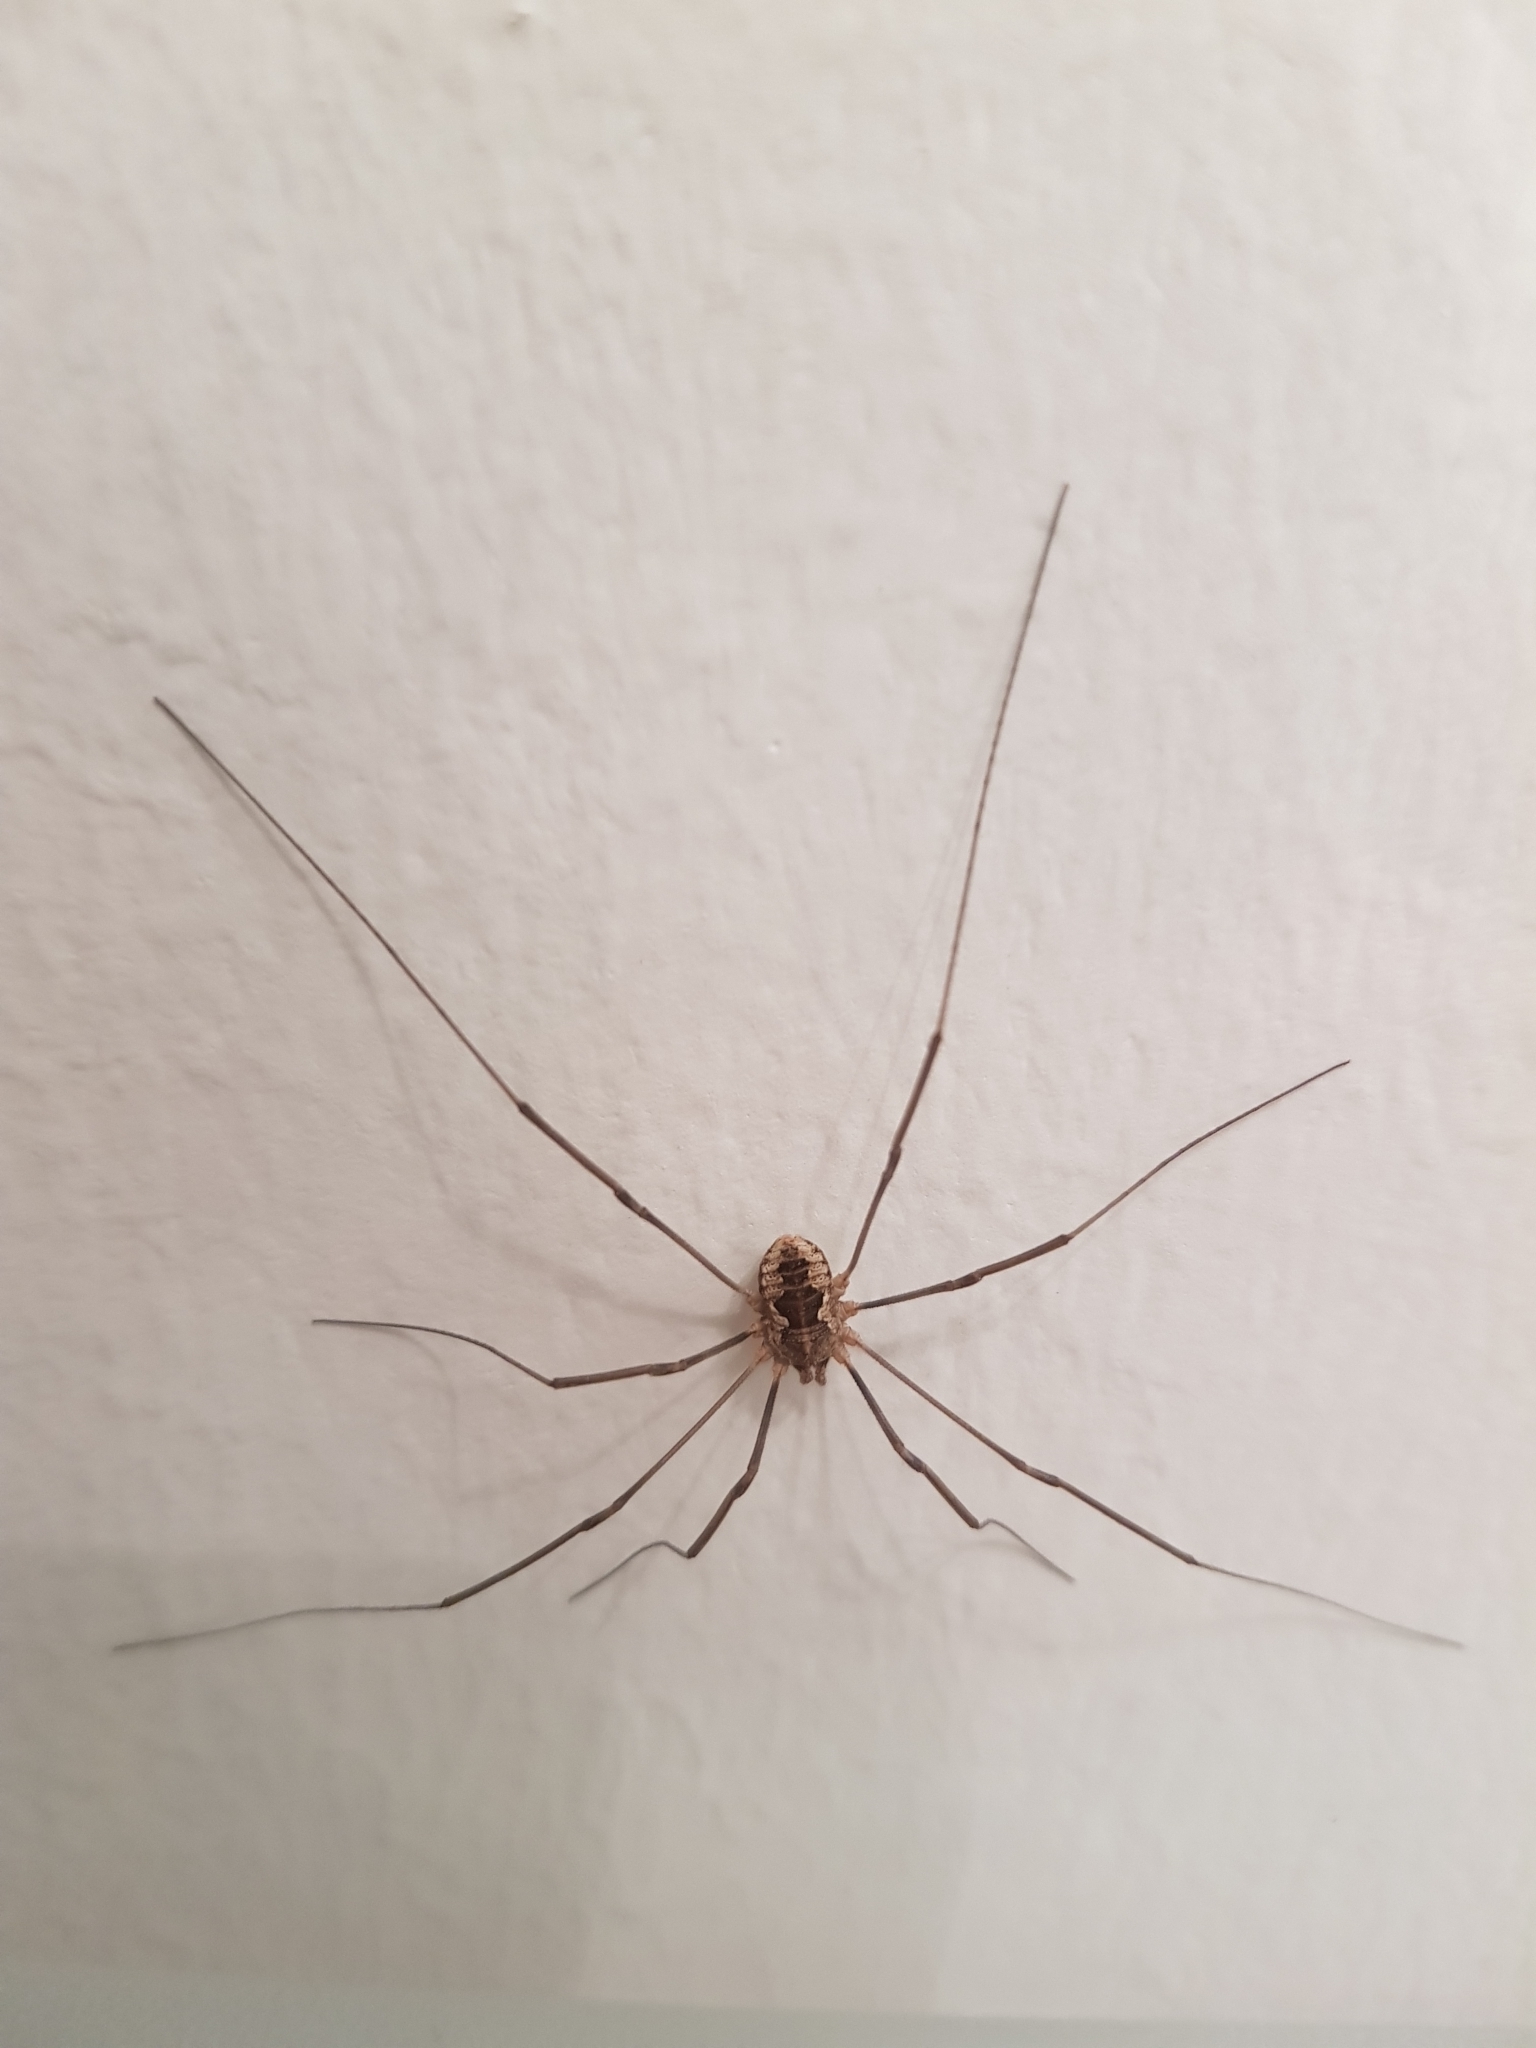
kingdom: Animalia
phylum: Arthropoda
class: Arachnida
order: Opiliones
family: Phalangiidae
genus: Phalangium
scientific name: Phalangium opilio
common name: Daddy longleg
